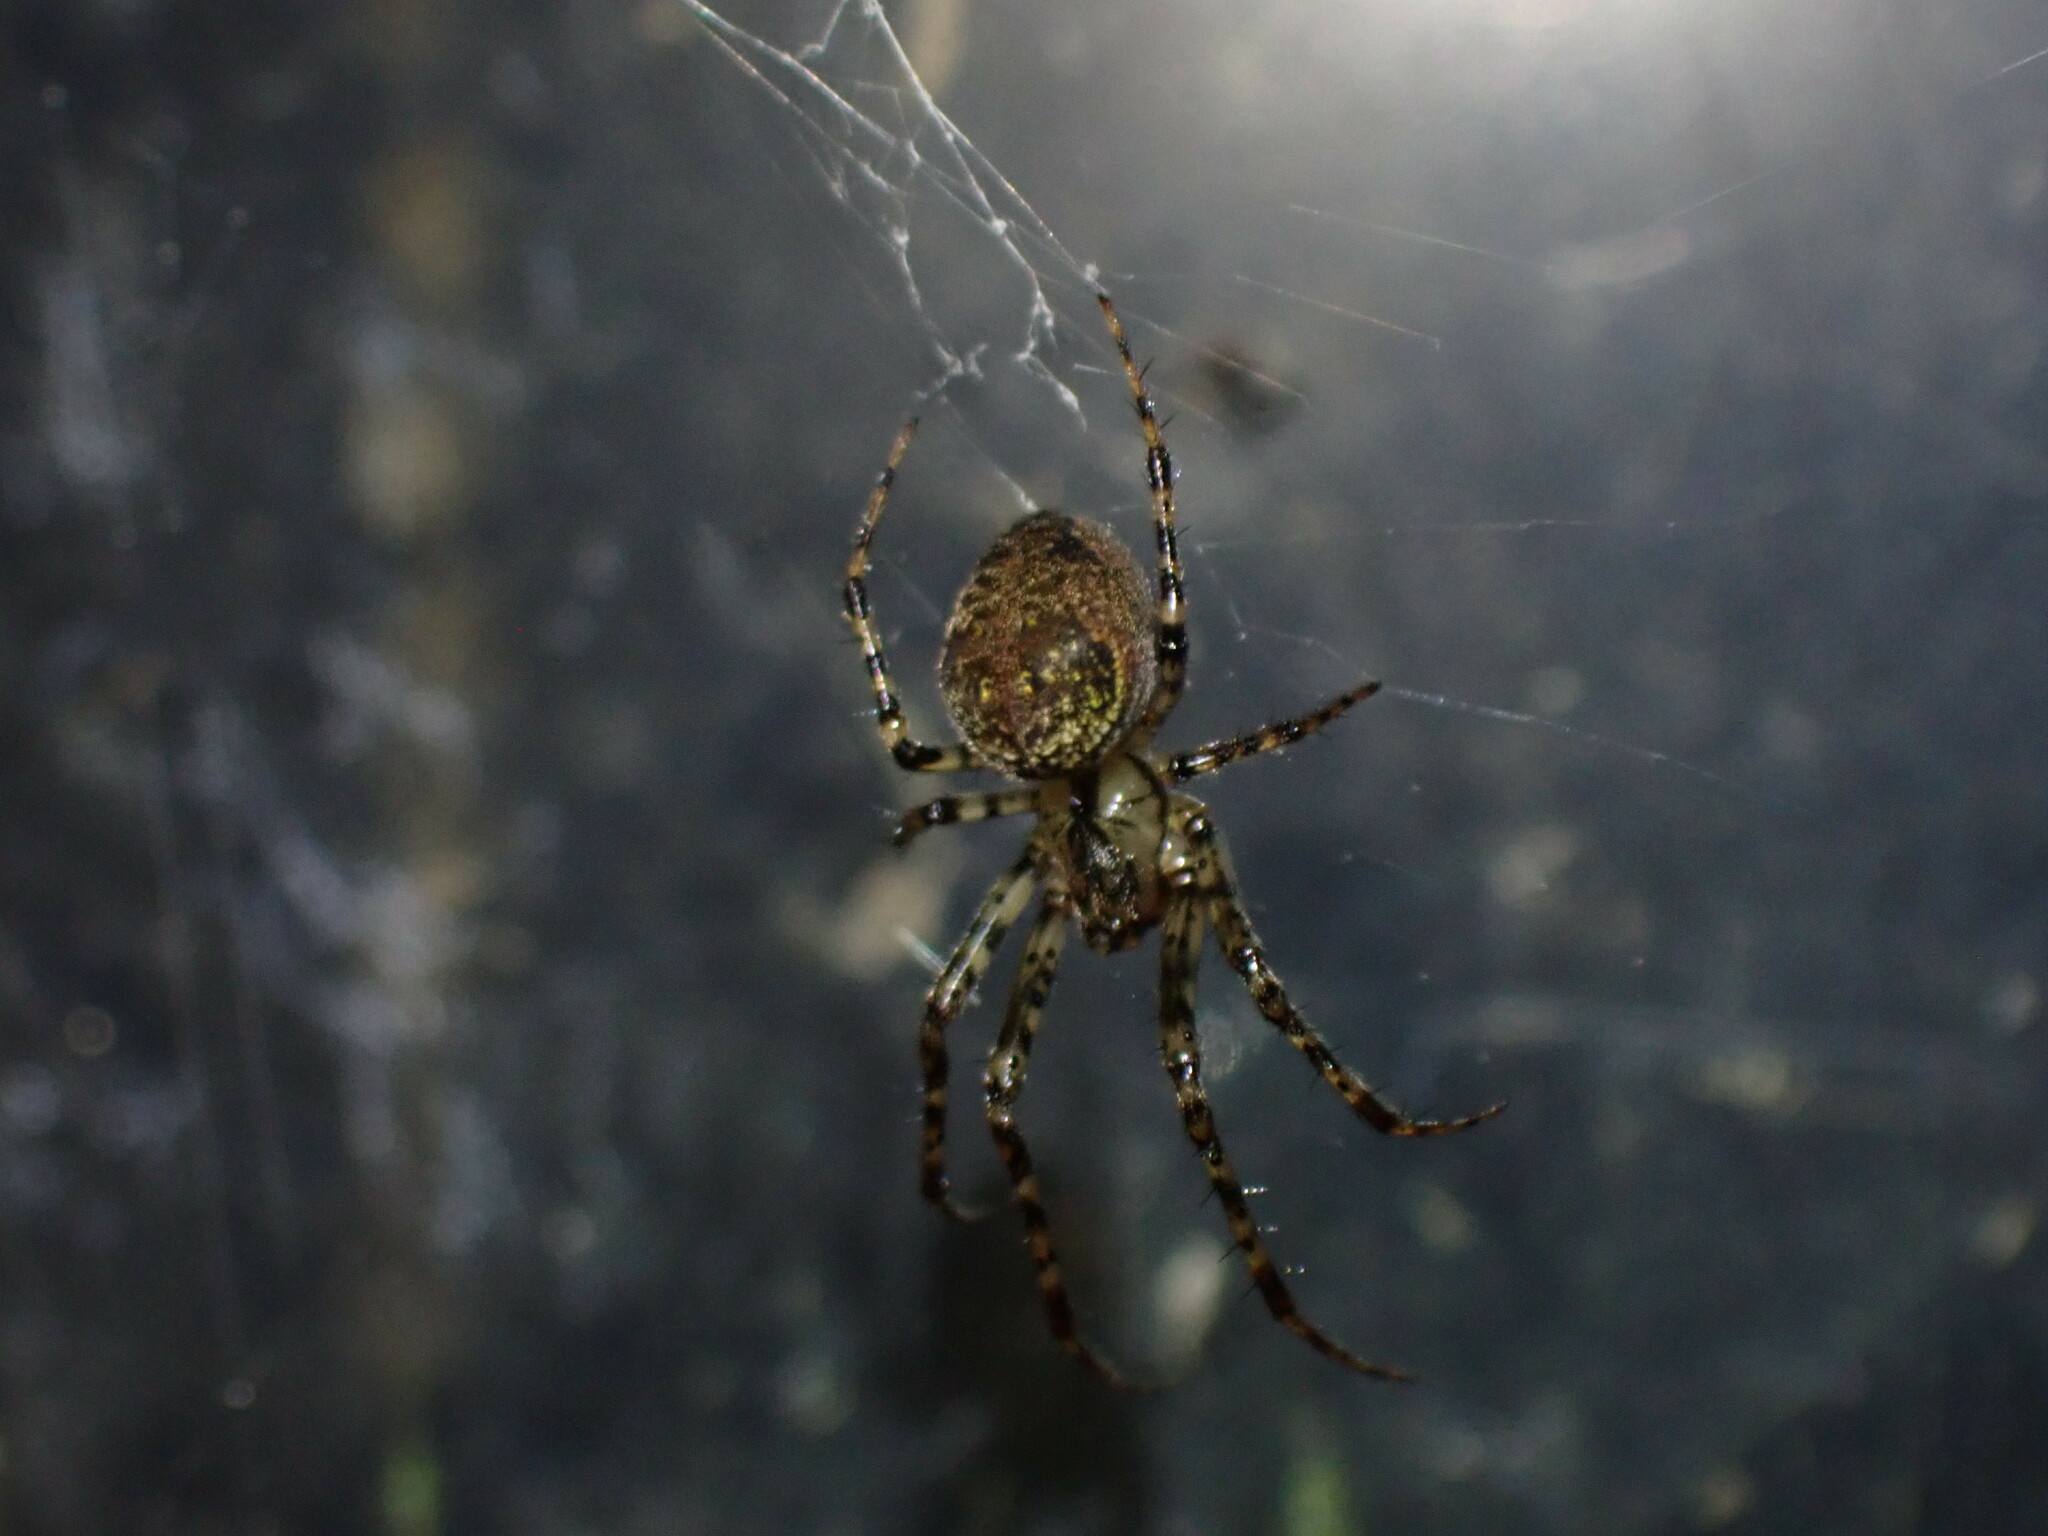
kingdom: Animalia
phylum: Arthropoda
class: Arachnida
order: Araneae
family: Tetragnathidae
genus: Metellina
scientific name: Metellina merianae
